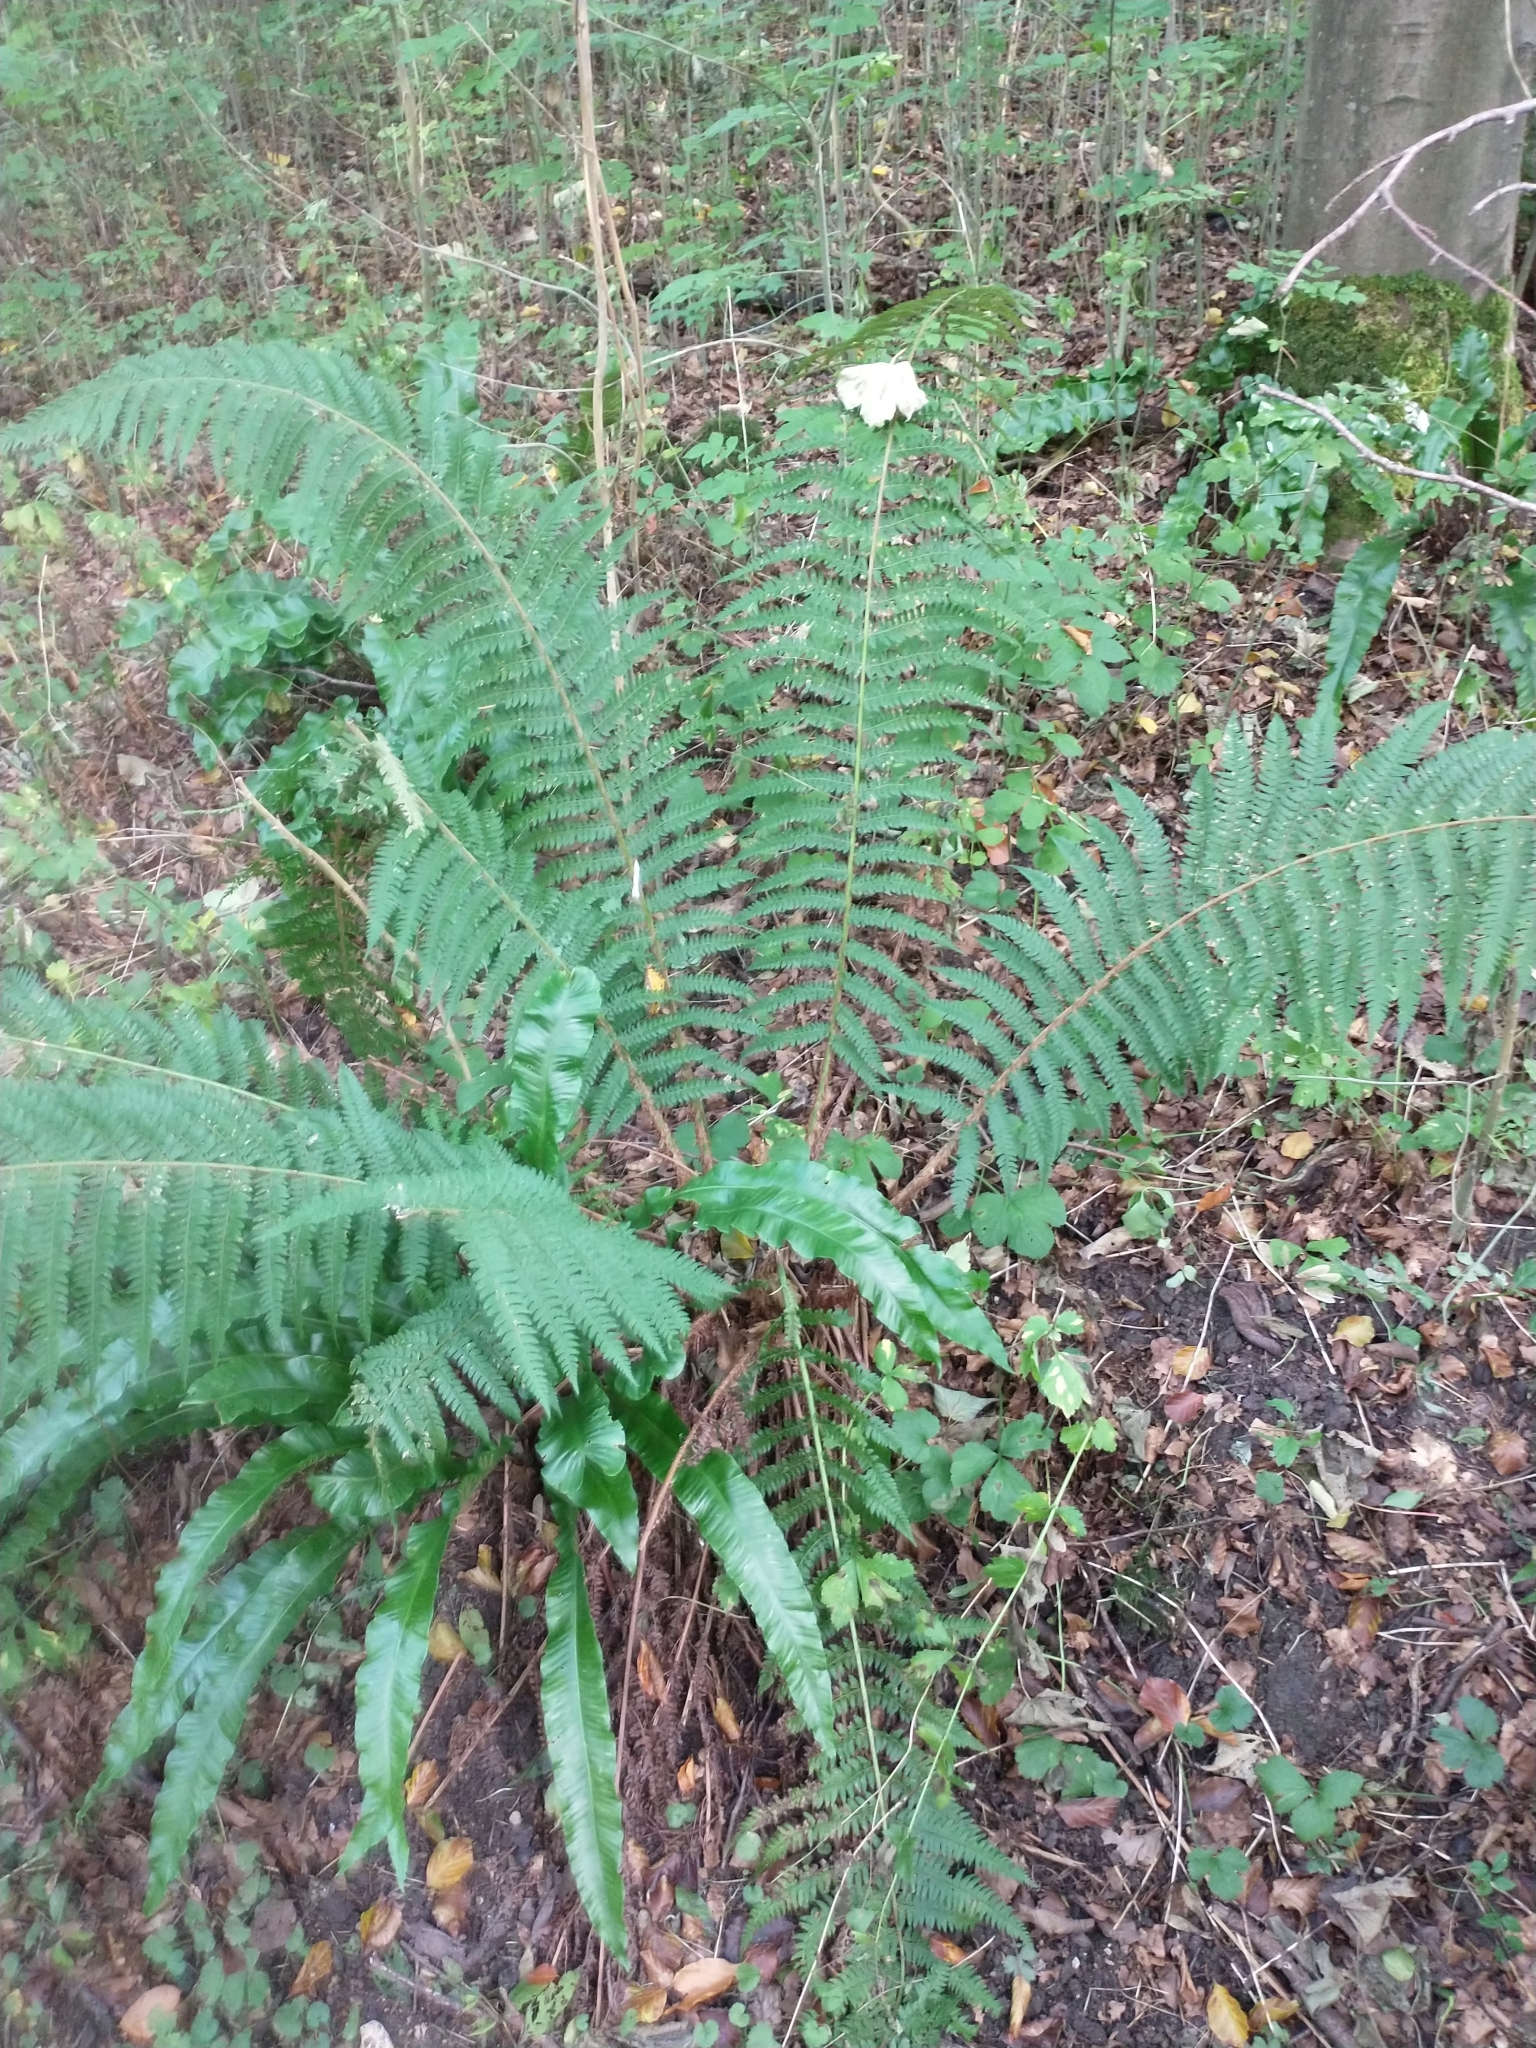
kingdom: Plantae
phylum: Tracheophyta
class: Polypodiopsida
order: Polypodiales
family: Dryopteridaceae
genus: Polystichum
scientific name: Polystichum setiferum
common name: Soft shield-fern
